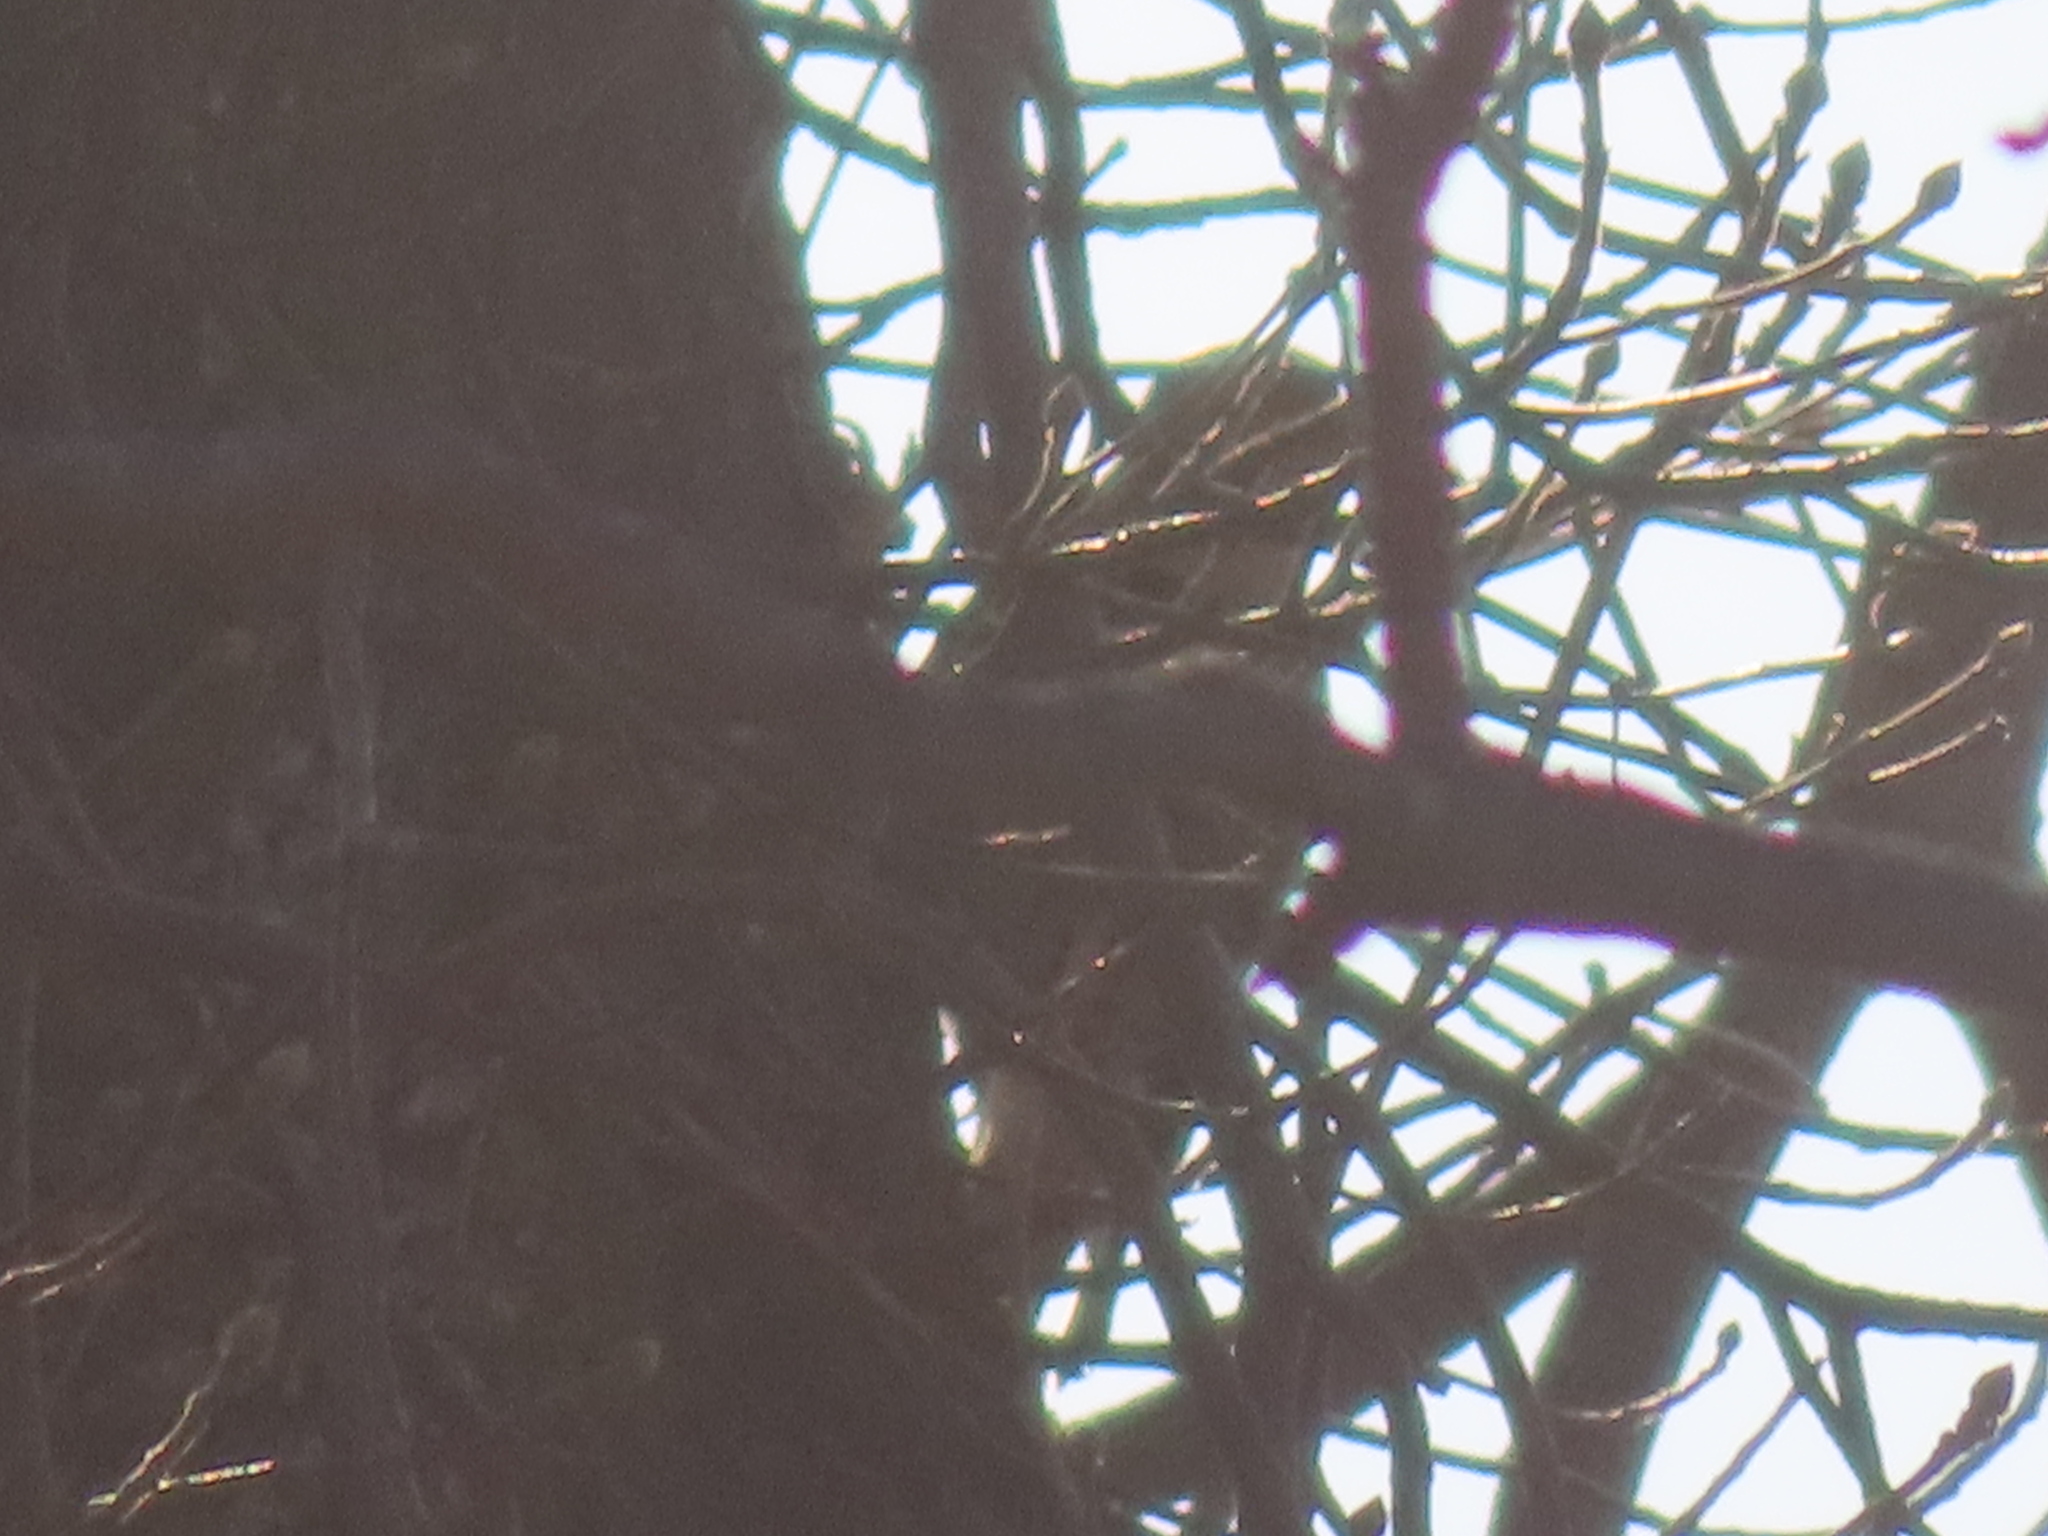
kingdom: Animalia
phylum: Chordata
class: Aves
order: Piciformes
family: Picidae
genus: Colaptes
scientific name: Colaptes auratus
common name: Northern flicker
